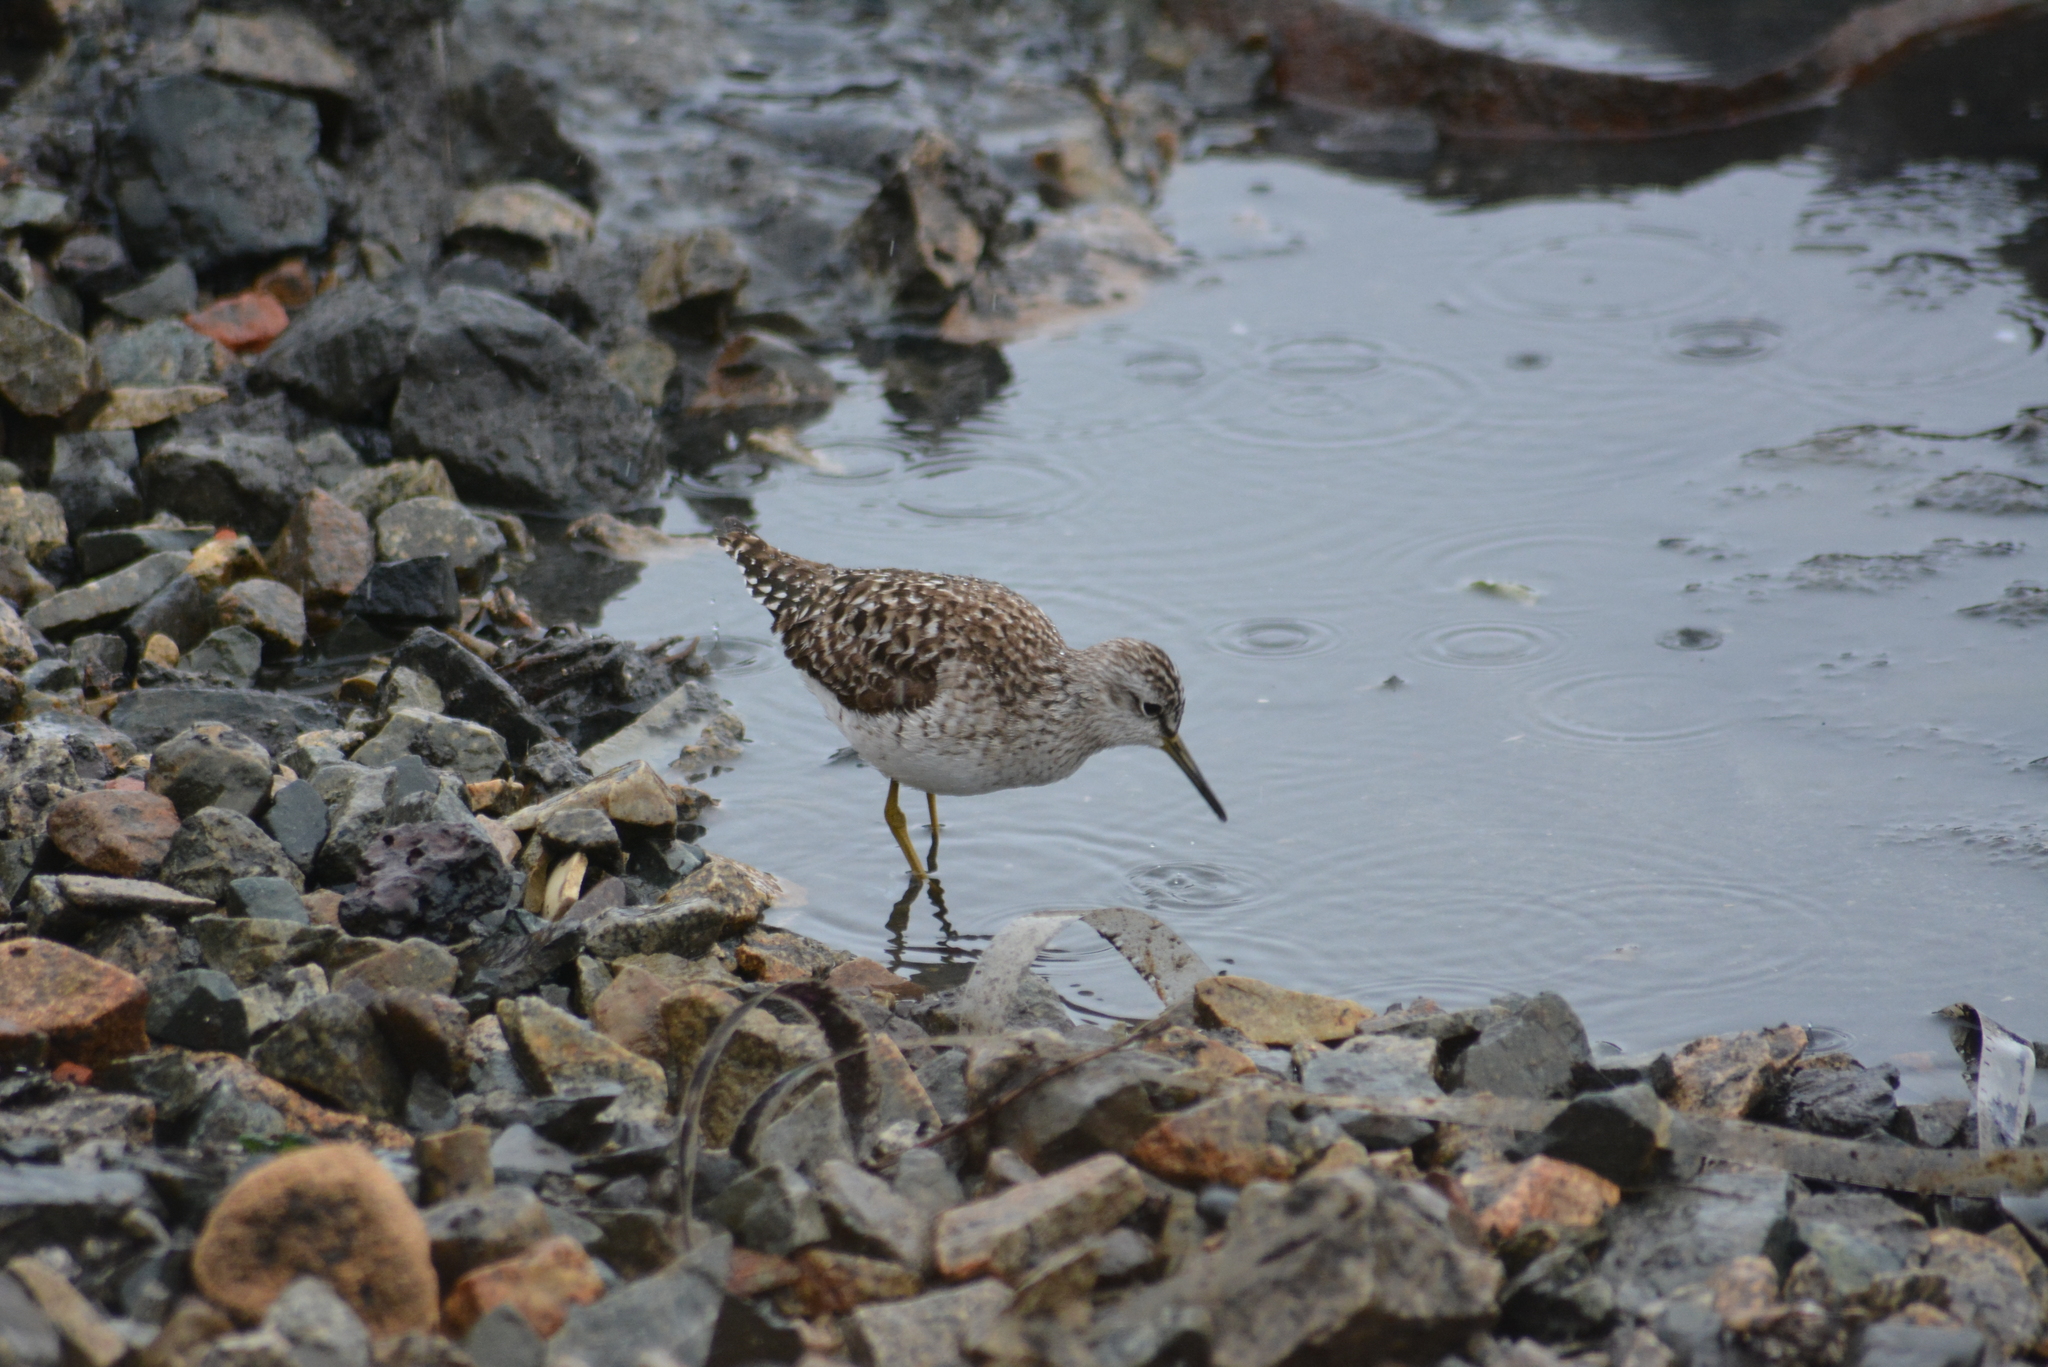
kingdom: Animalia
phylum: Chordata
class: Aves
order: Charadriiformes
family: Scolopacidae
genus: Tringa
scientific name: Tringa glareola
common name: Wood sandpiper
